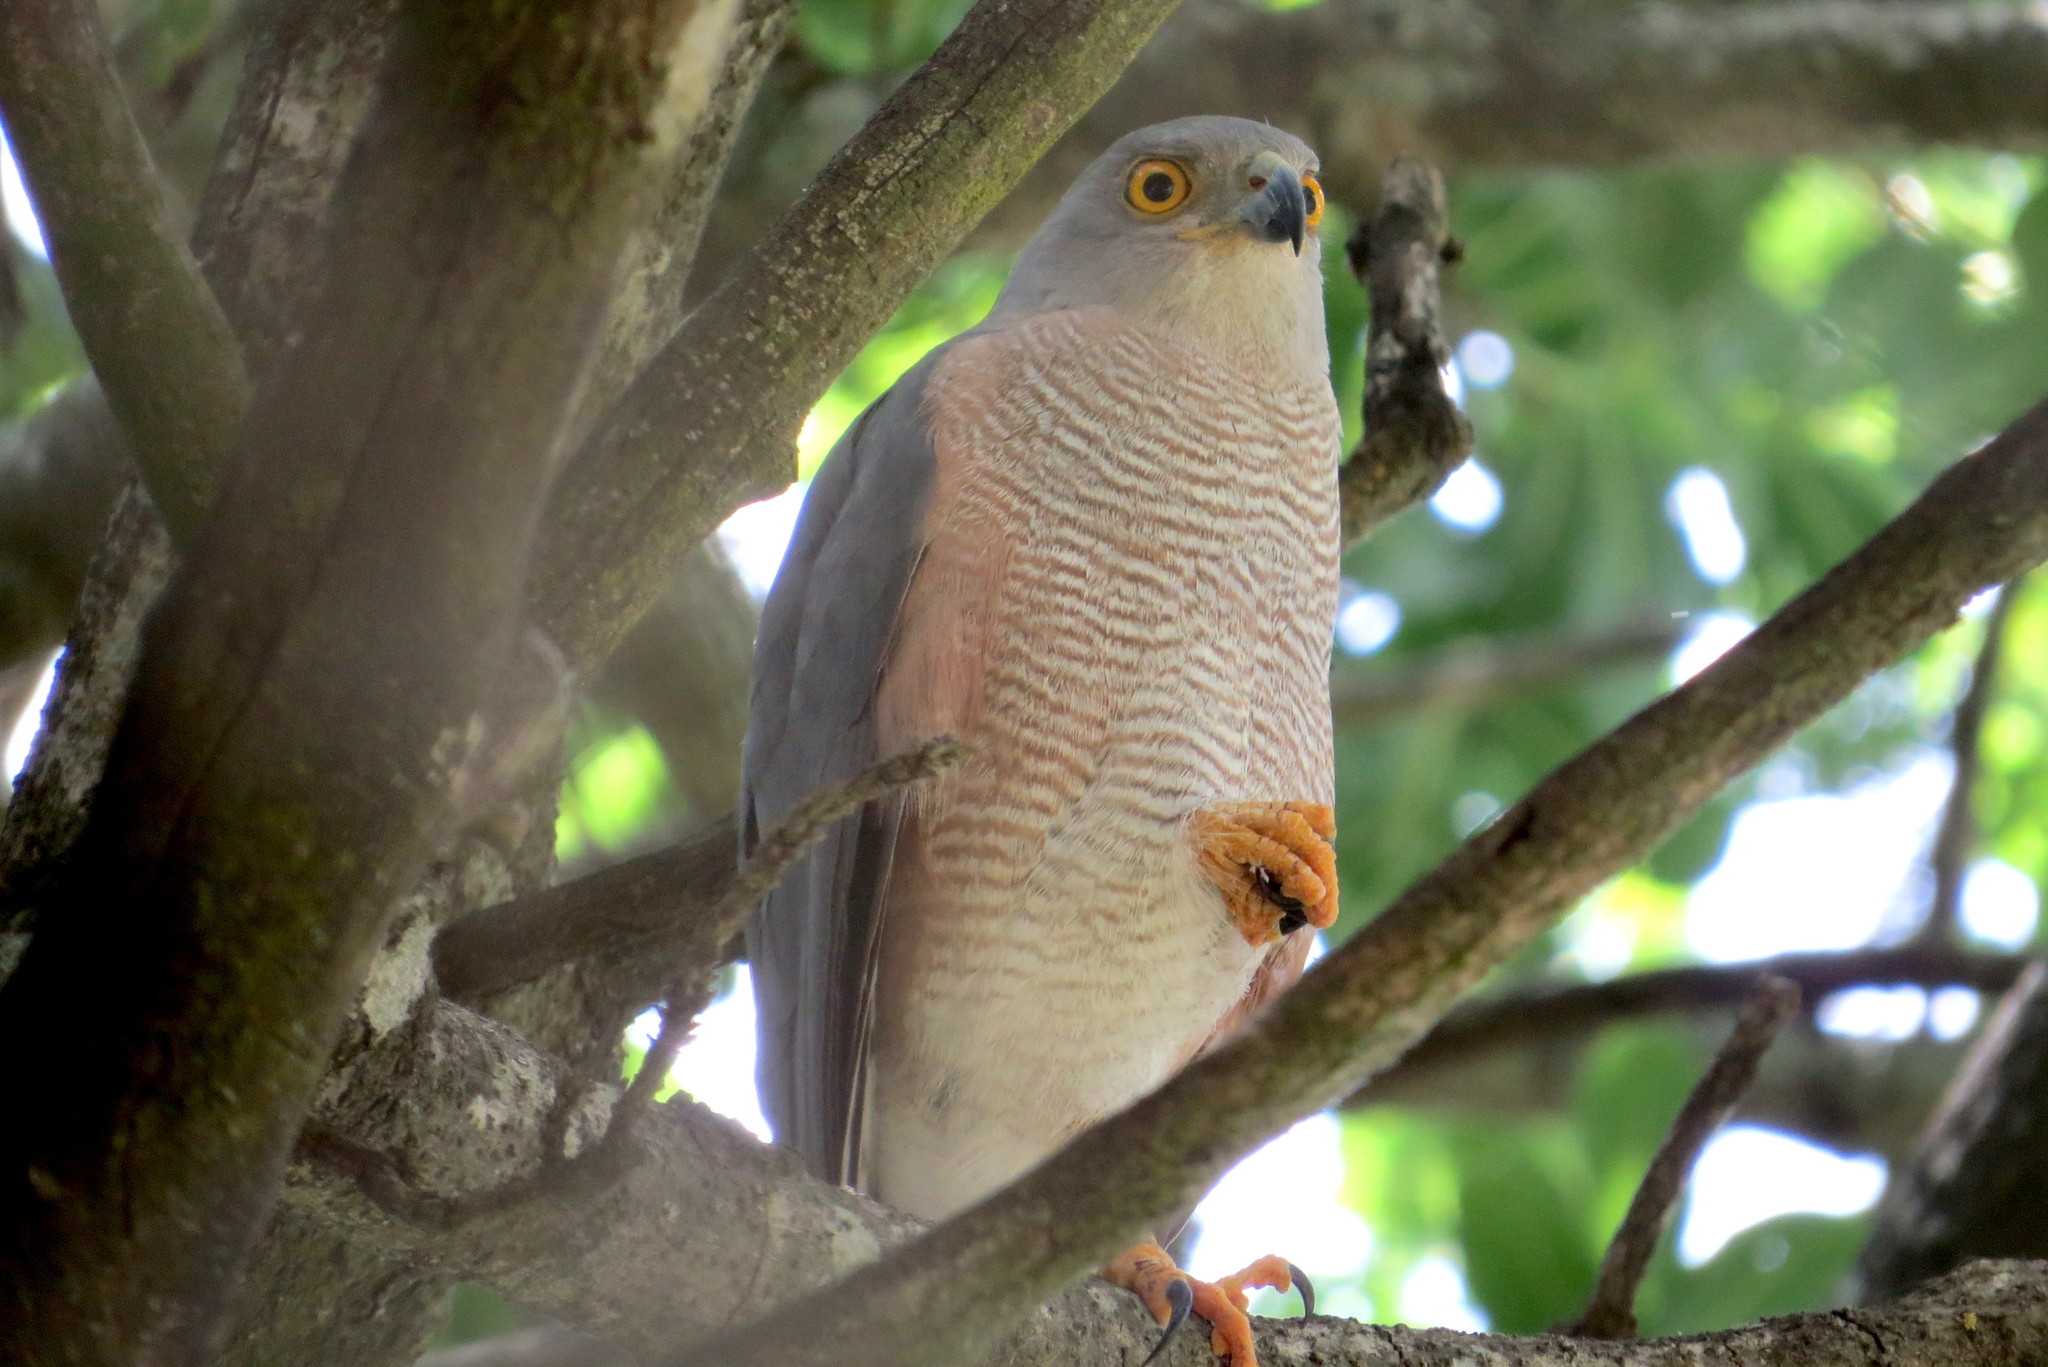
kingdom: Animalia
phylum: Chordata
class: Aves
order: Accipitriformes
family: Accipitridae
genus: Accipiter
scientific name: Accipiter tachiro
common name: African goshawk
